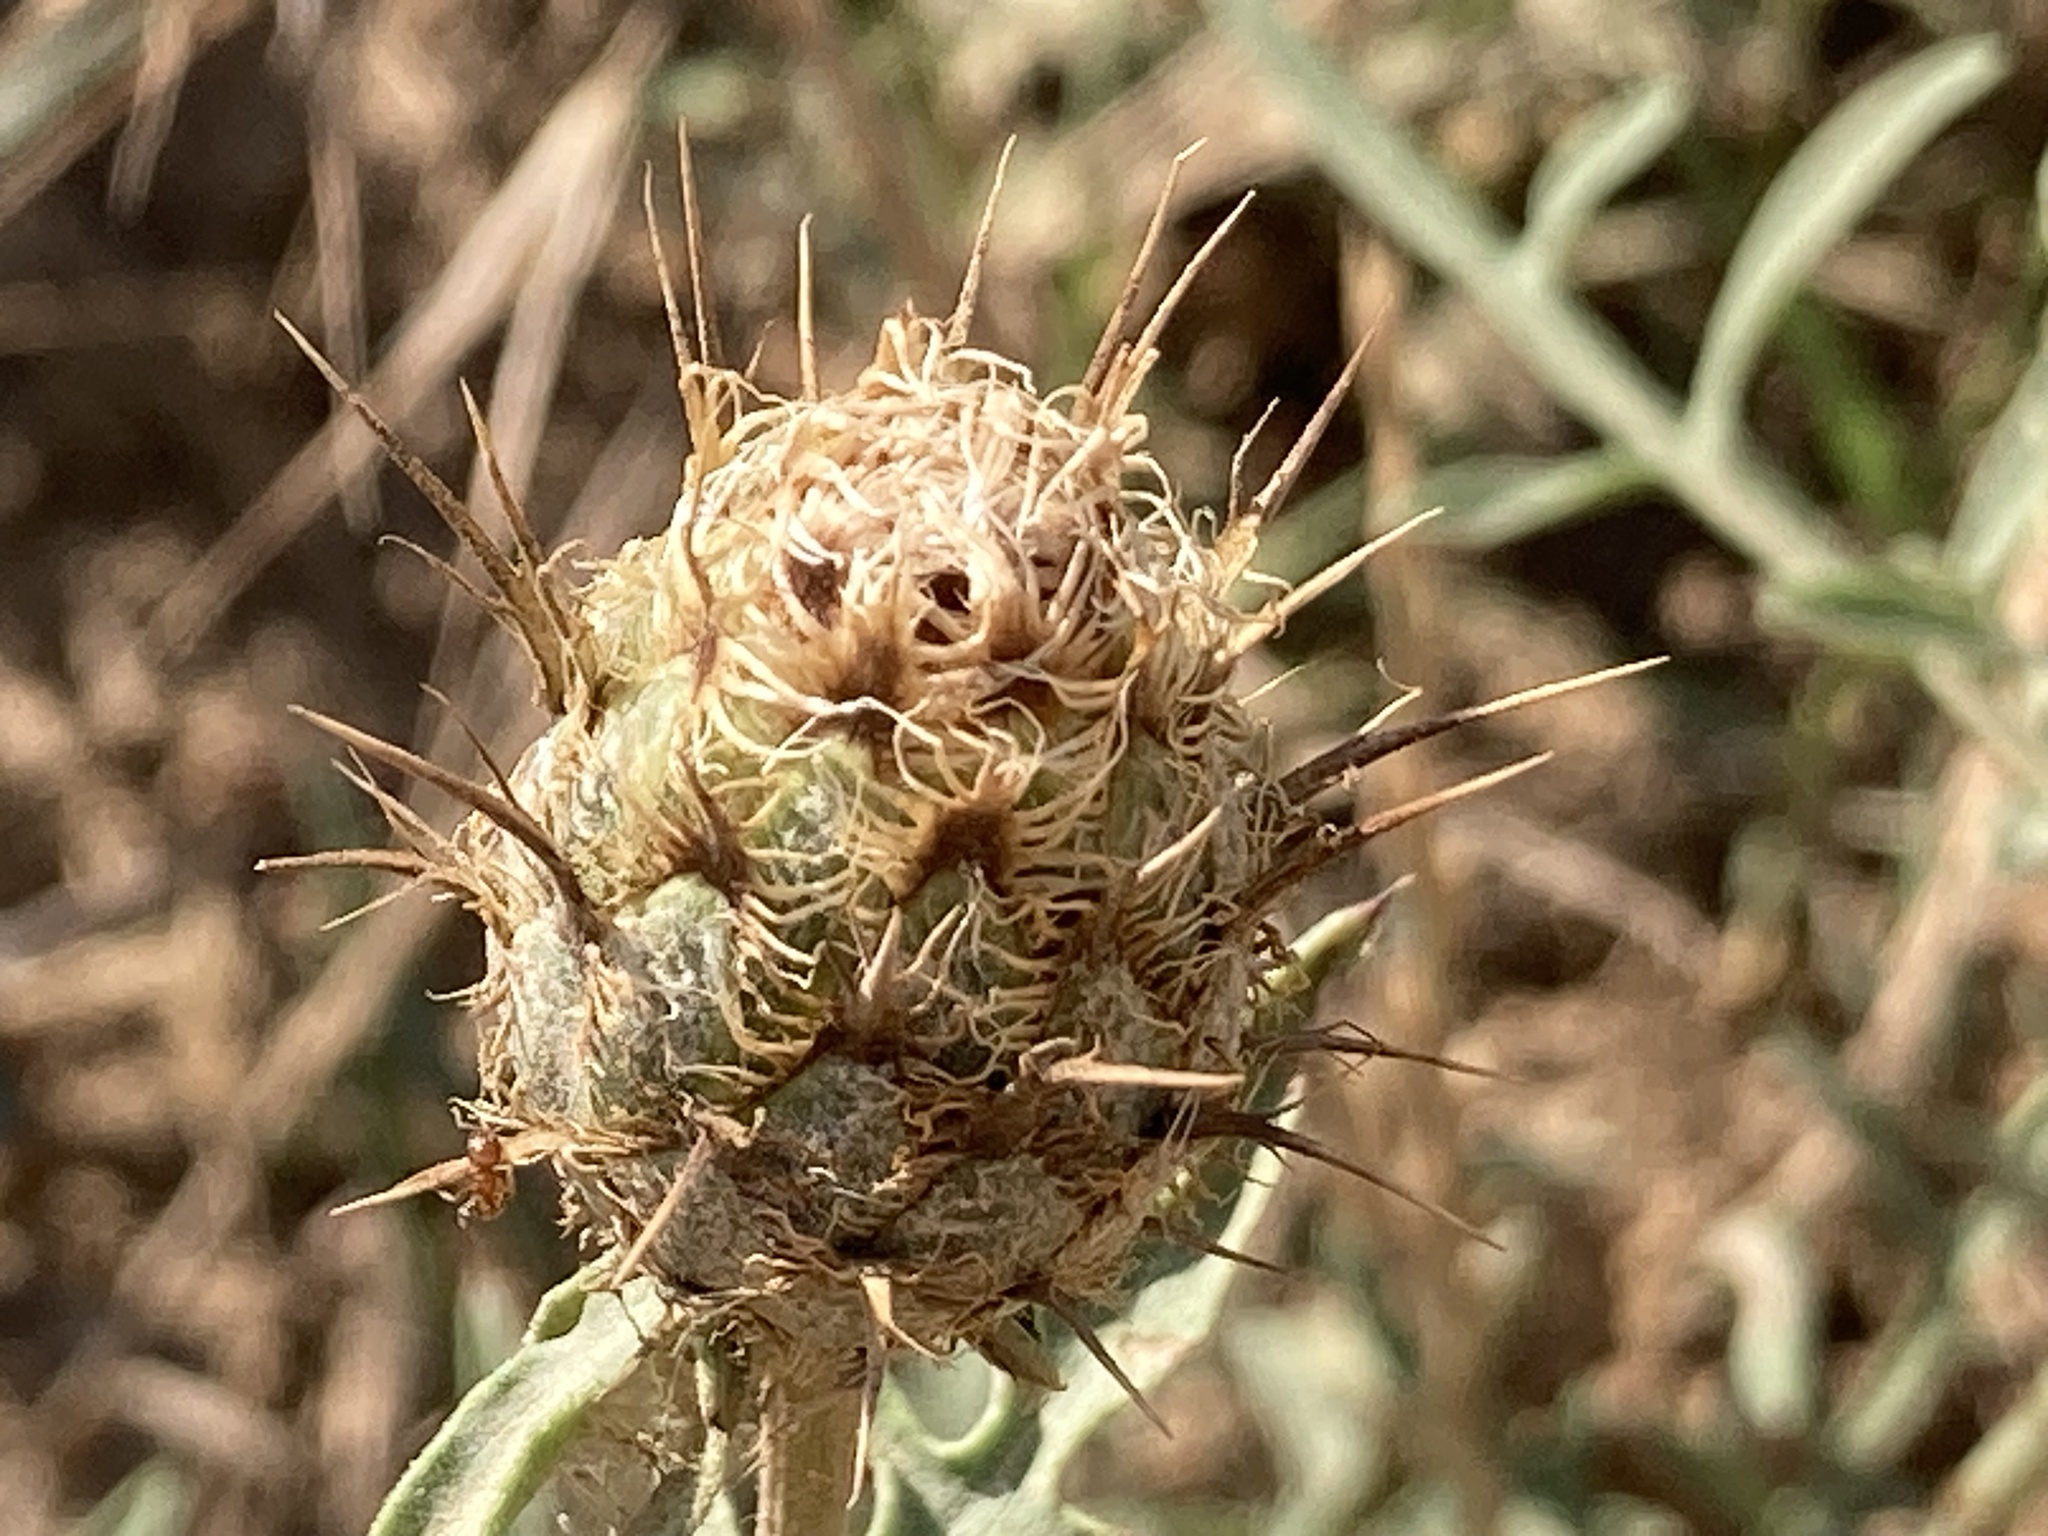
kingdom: Plantae
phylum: Tracheophyta
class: Magnoliopsida
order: Asterales
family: Asteraceae
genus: Centaurea
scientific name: Centaurea collina
